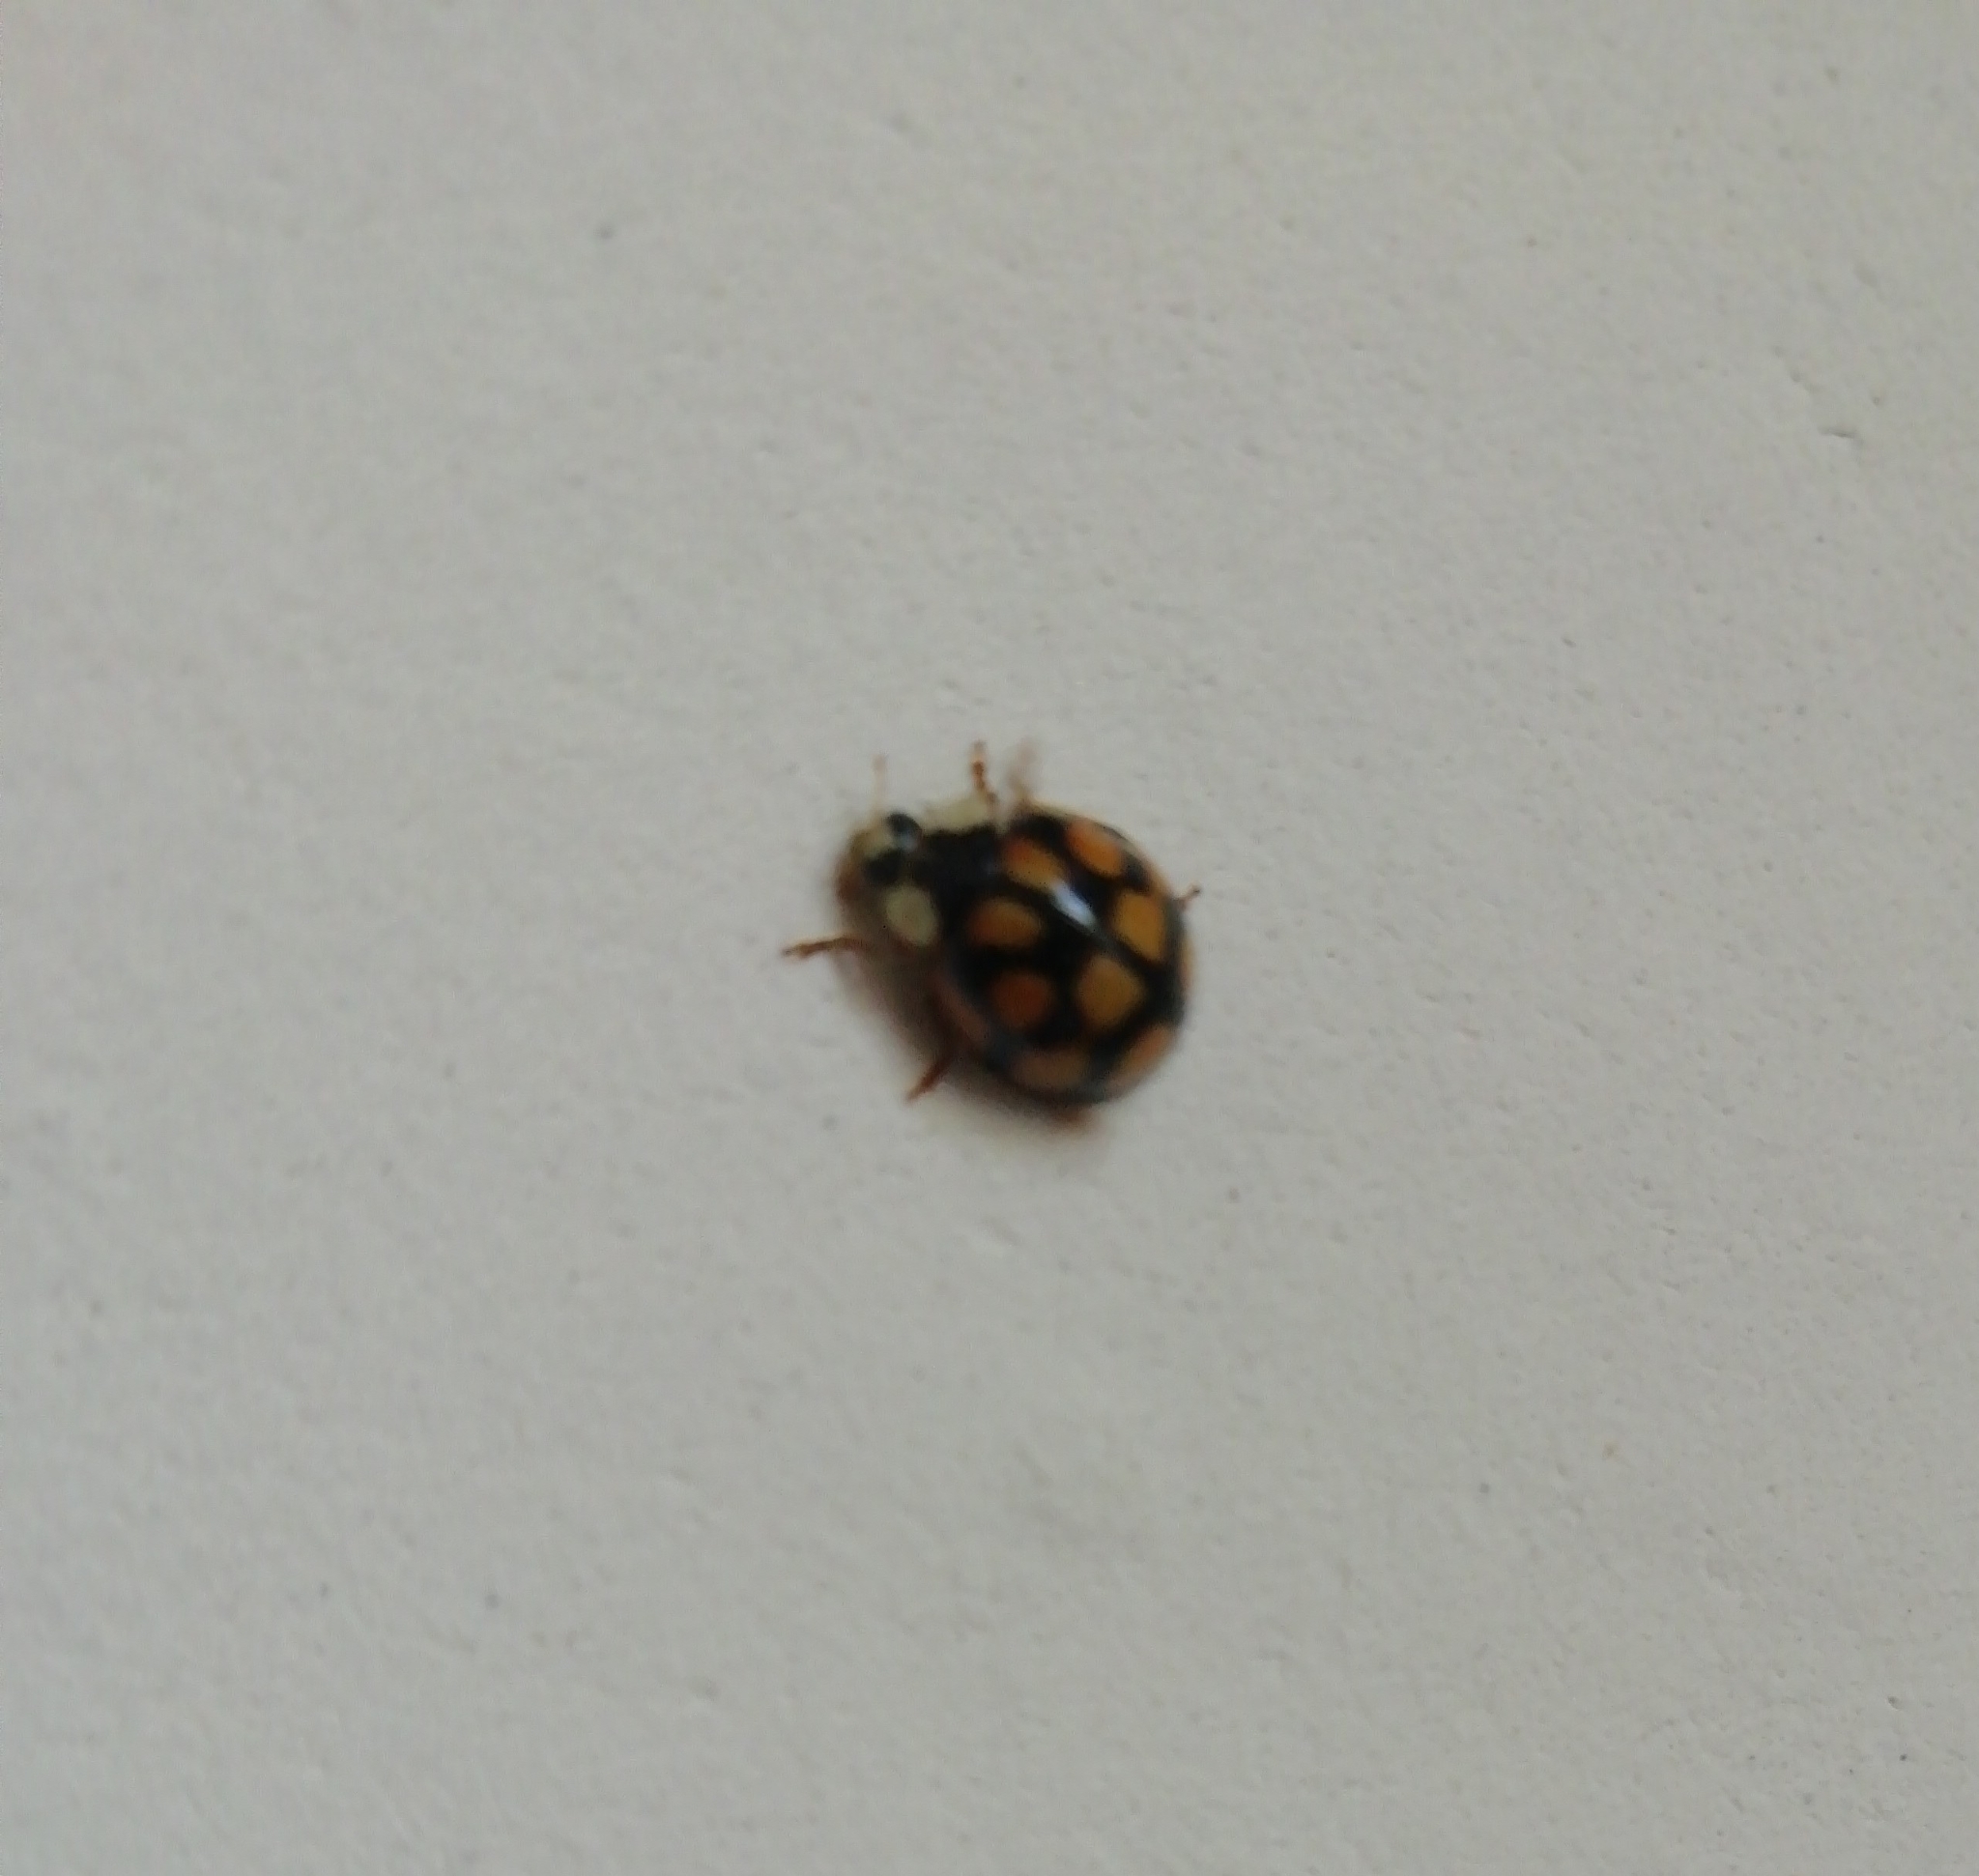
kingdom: Animalia
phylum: Arthropoda
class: Insecta
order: Coleoptera
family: Coccinellidae
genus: Harmonia
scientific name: Harmonia axyridis
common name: Harlequin ladybird
